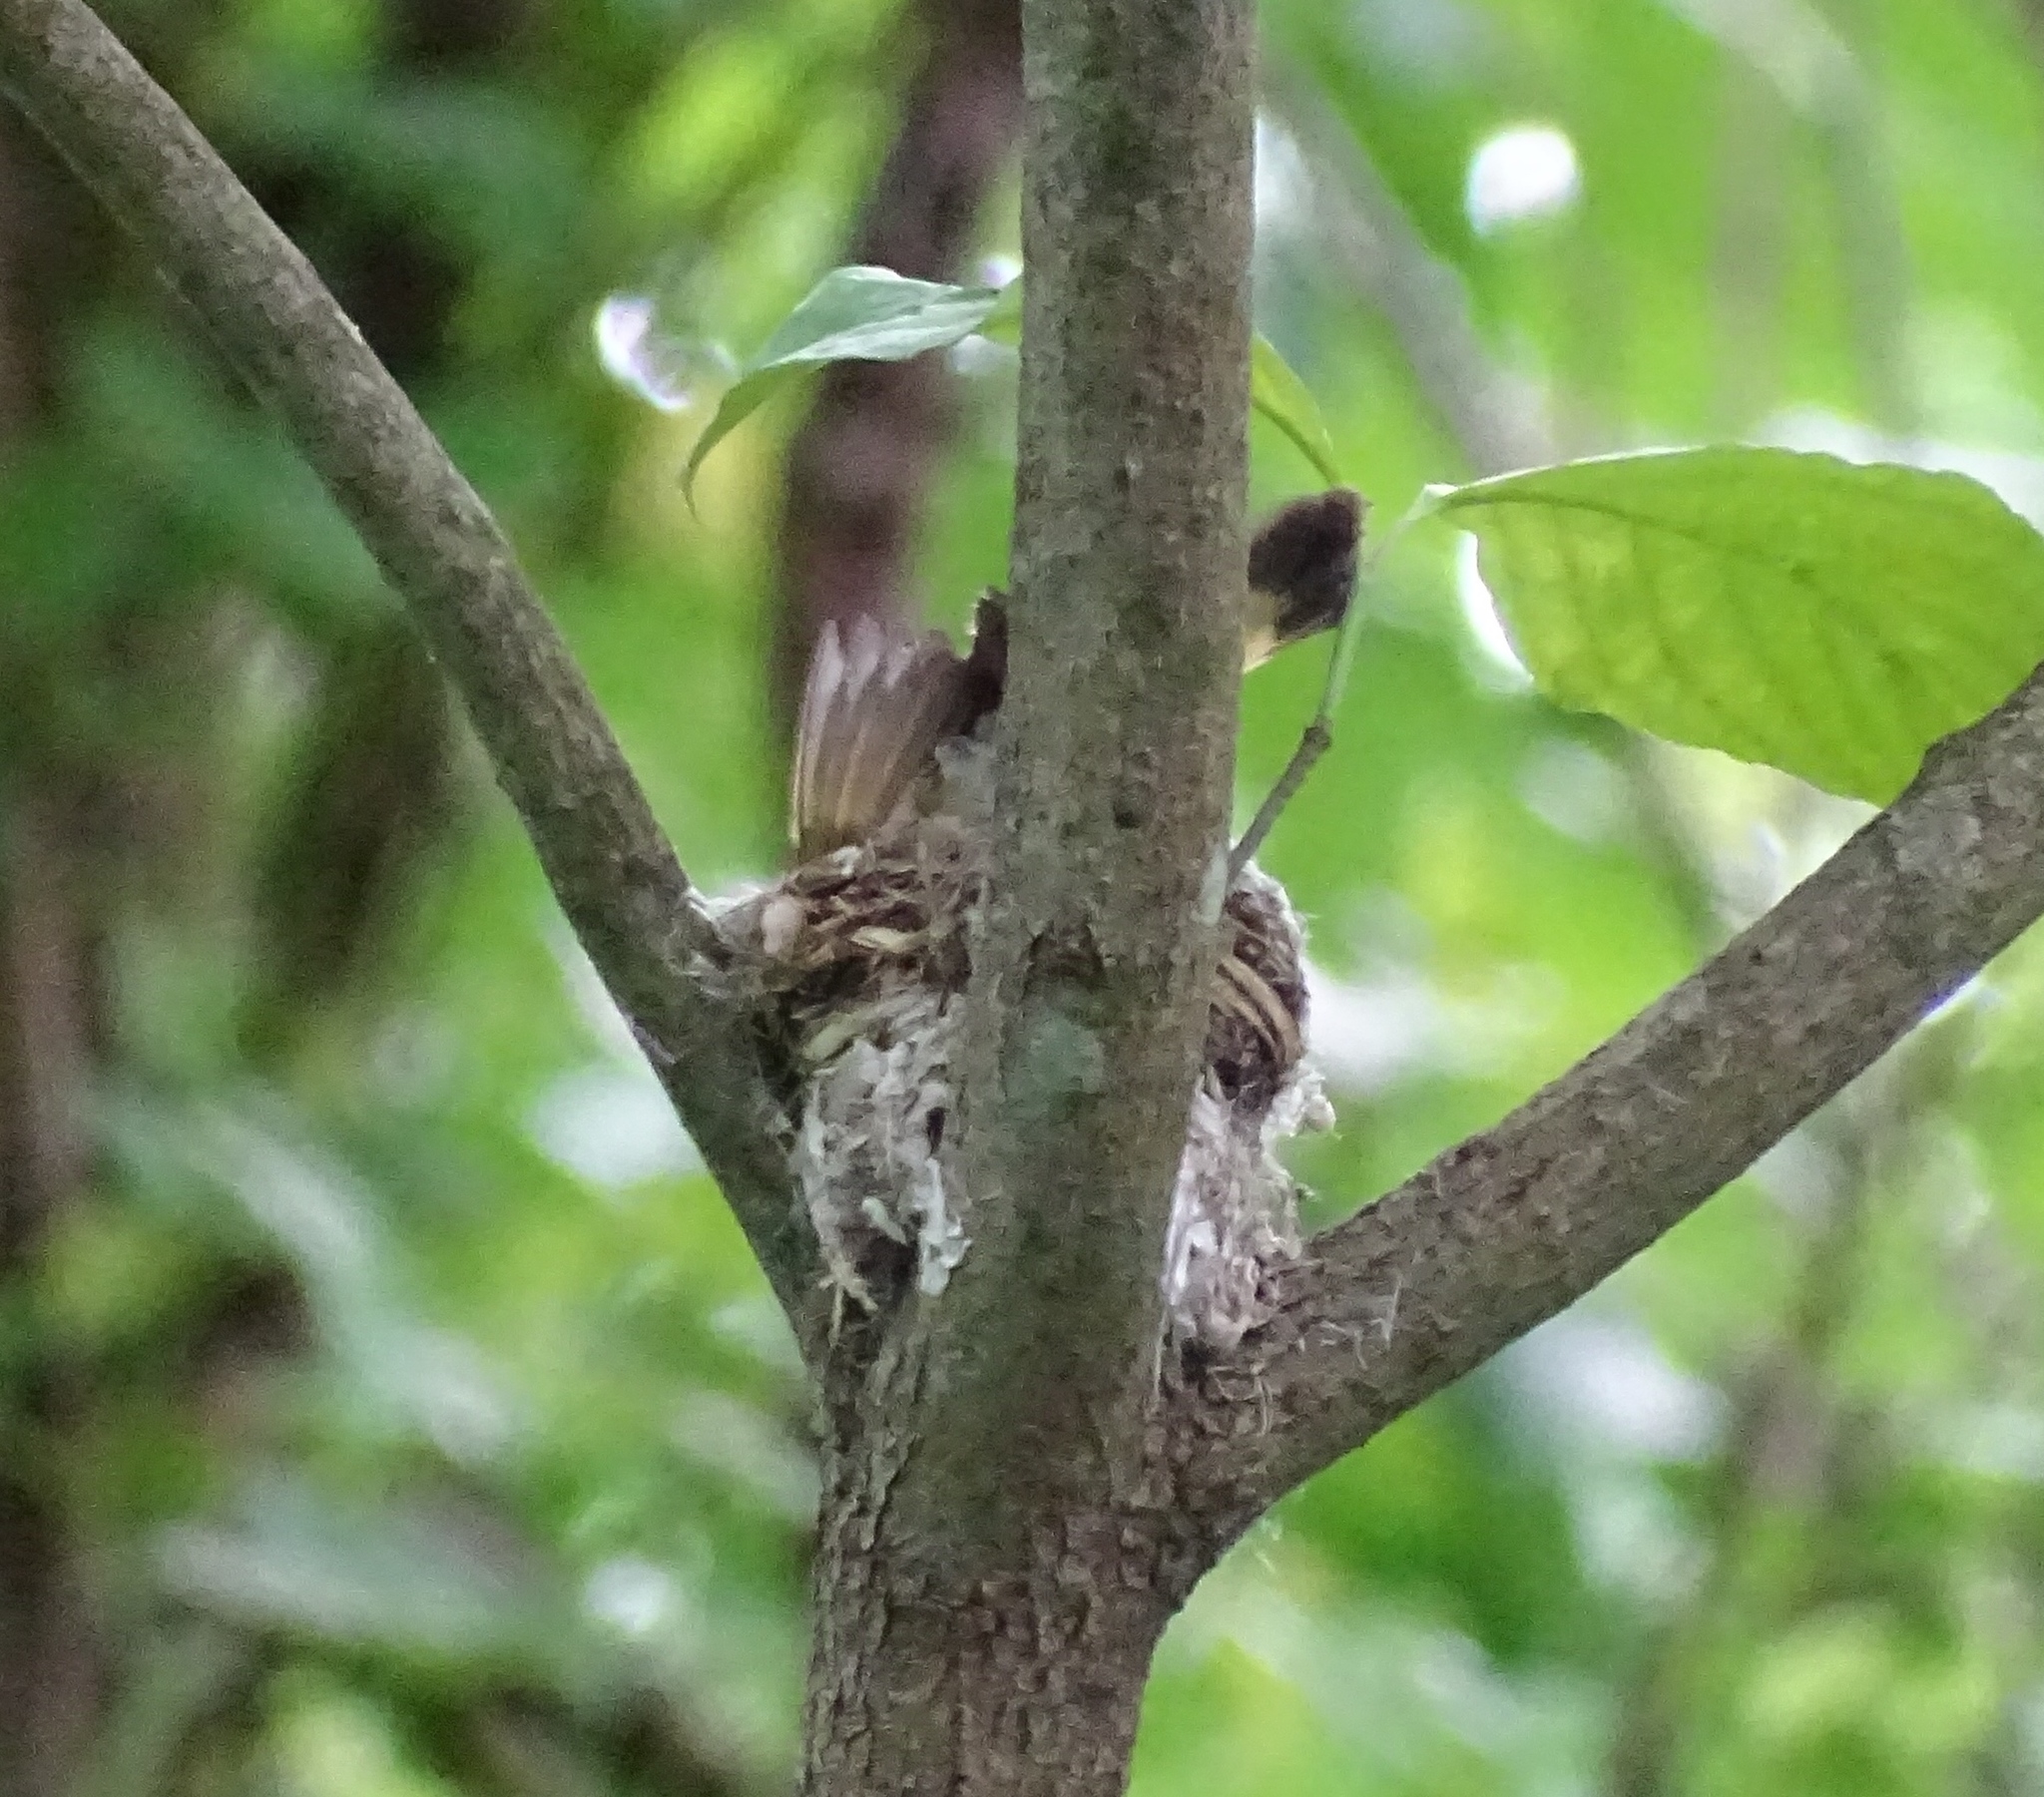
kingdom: Animalia
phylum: Chordata
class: Aves
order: Passeriformes
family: Parulidae
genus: Setophaga
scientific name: Setophaga ruticilla
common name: American redstart
